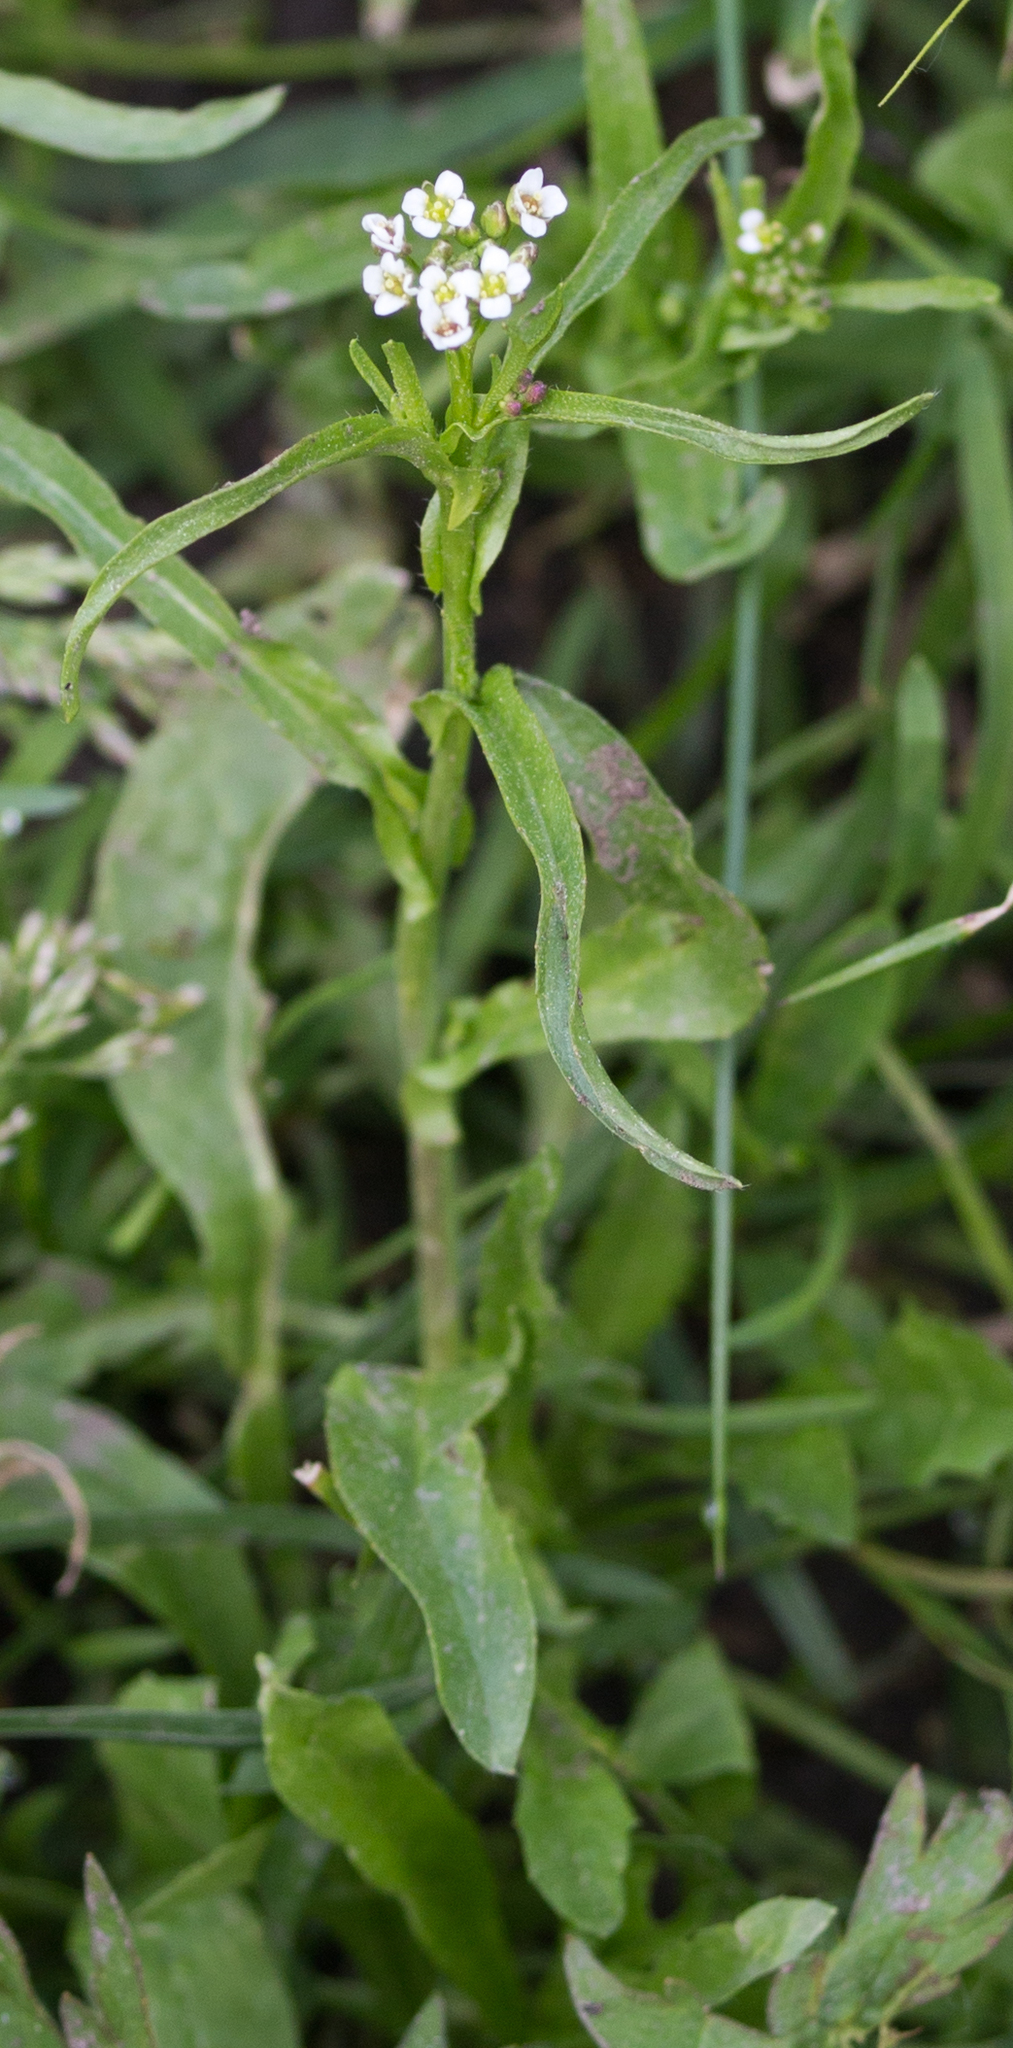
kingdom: Plantae
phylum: Tracheophyta
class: Magnoliopsida
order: Brassicales
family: Brassicaceae
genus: Capsella
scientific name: Capsella bursa-pastoris
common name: Shepherd's purse
